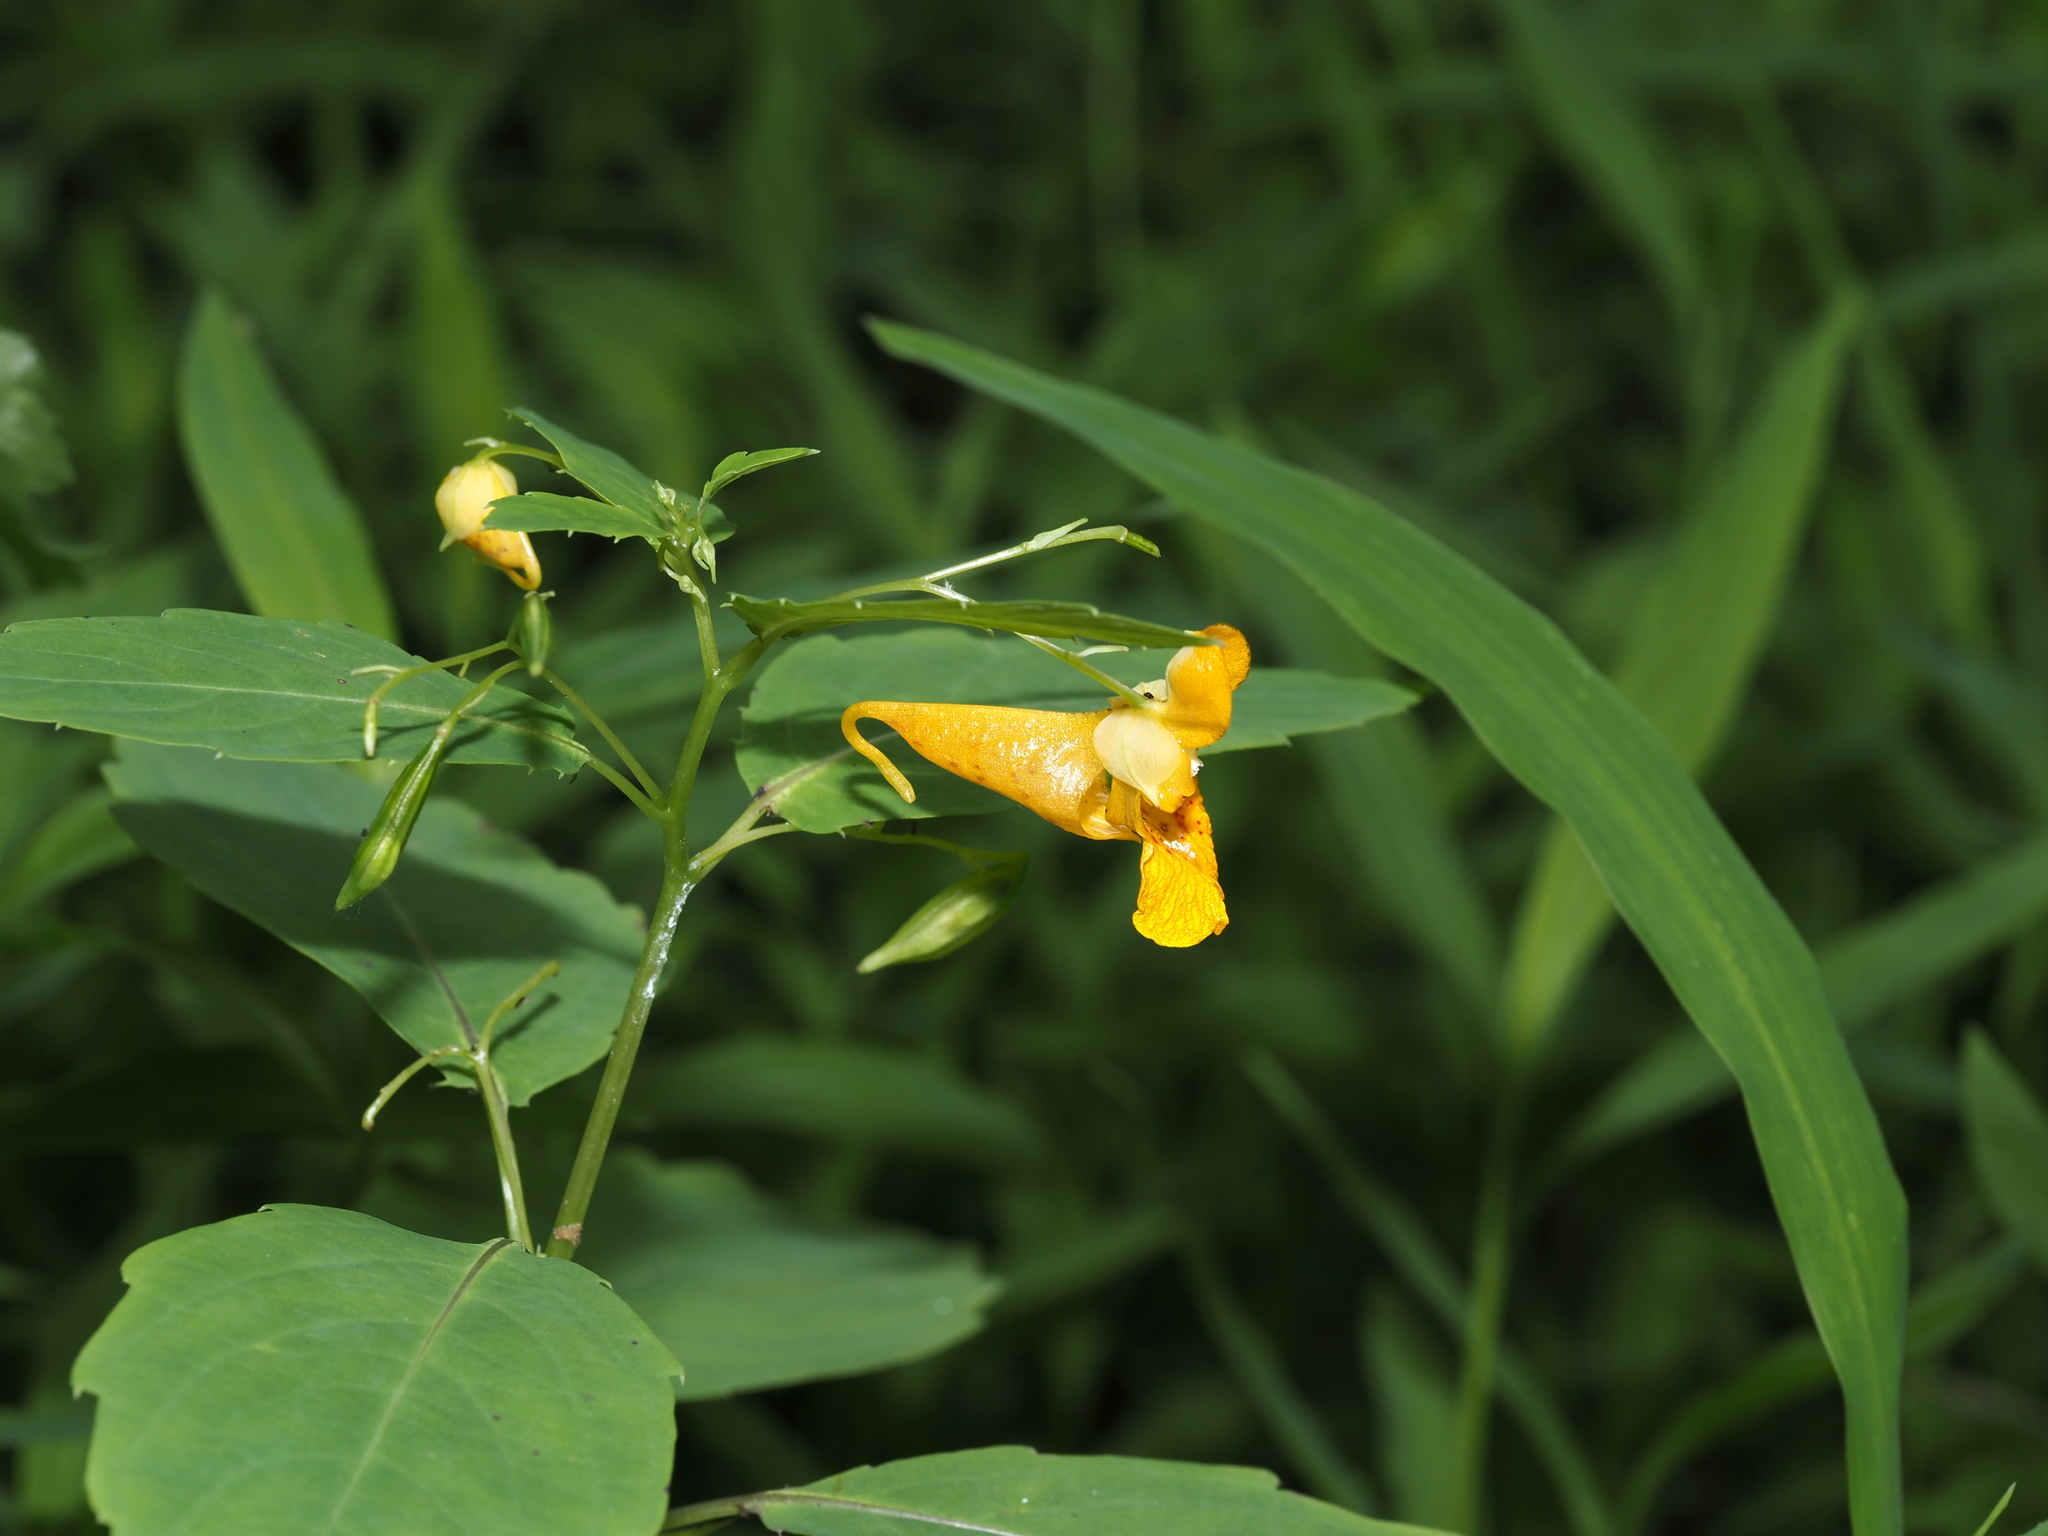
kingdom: Plantae
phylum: Tracheophyta
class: Magnoliopsida
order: Ericales
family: Balsaminaceae
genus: Impatiens
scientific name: Impatiens capensis
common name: Orange balsam
